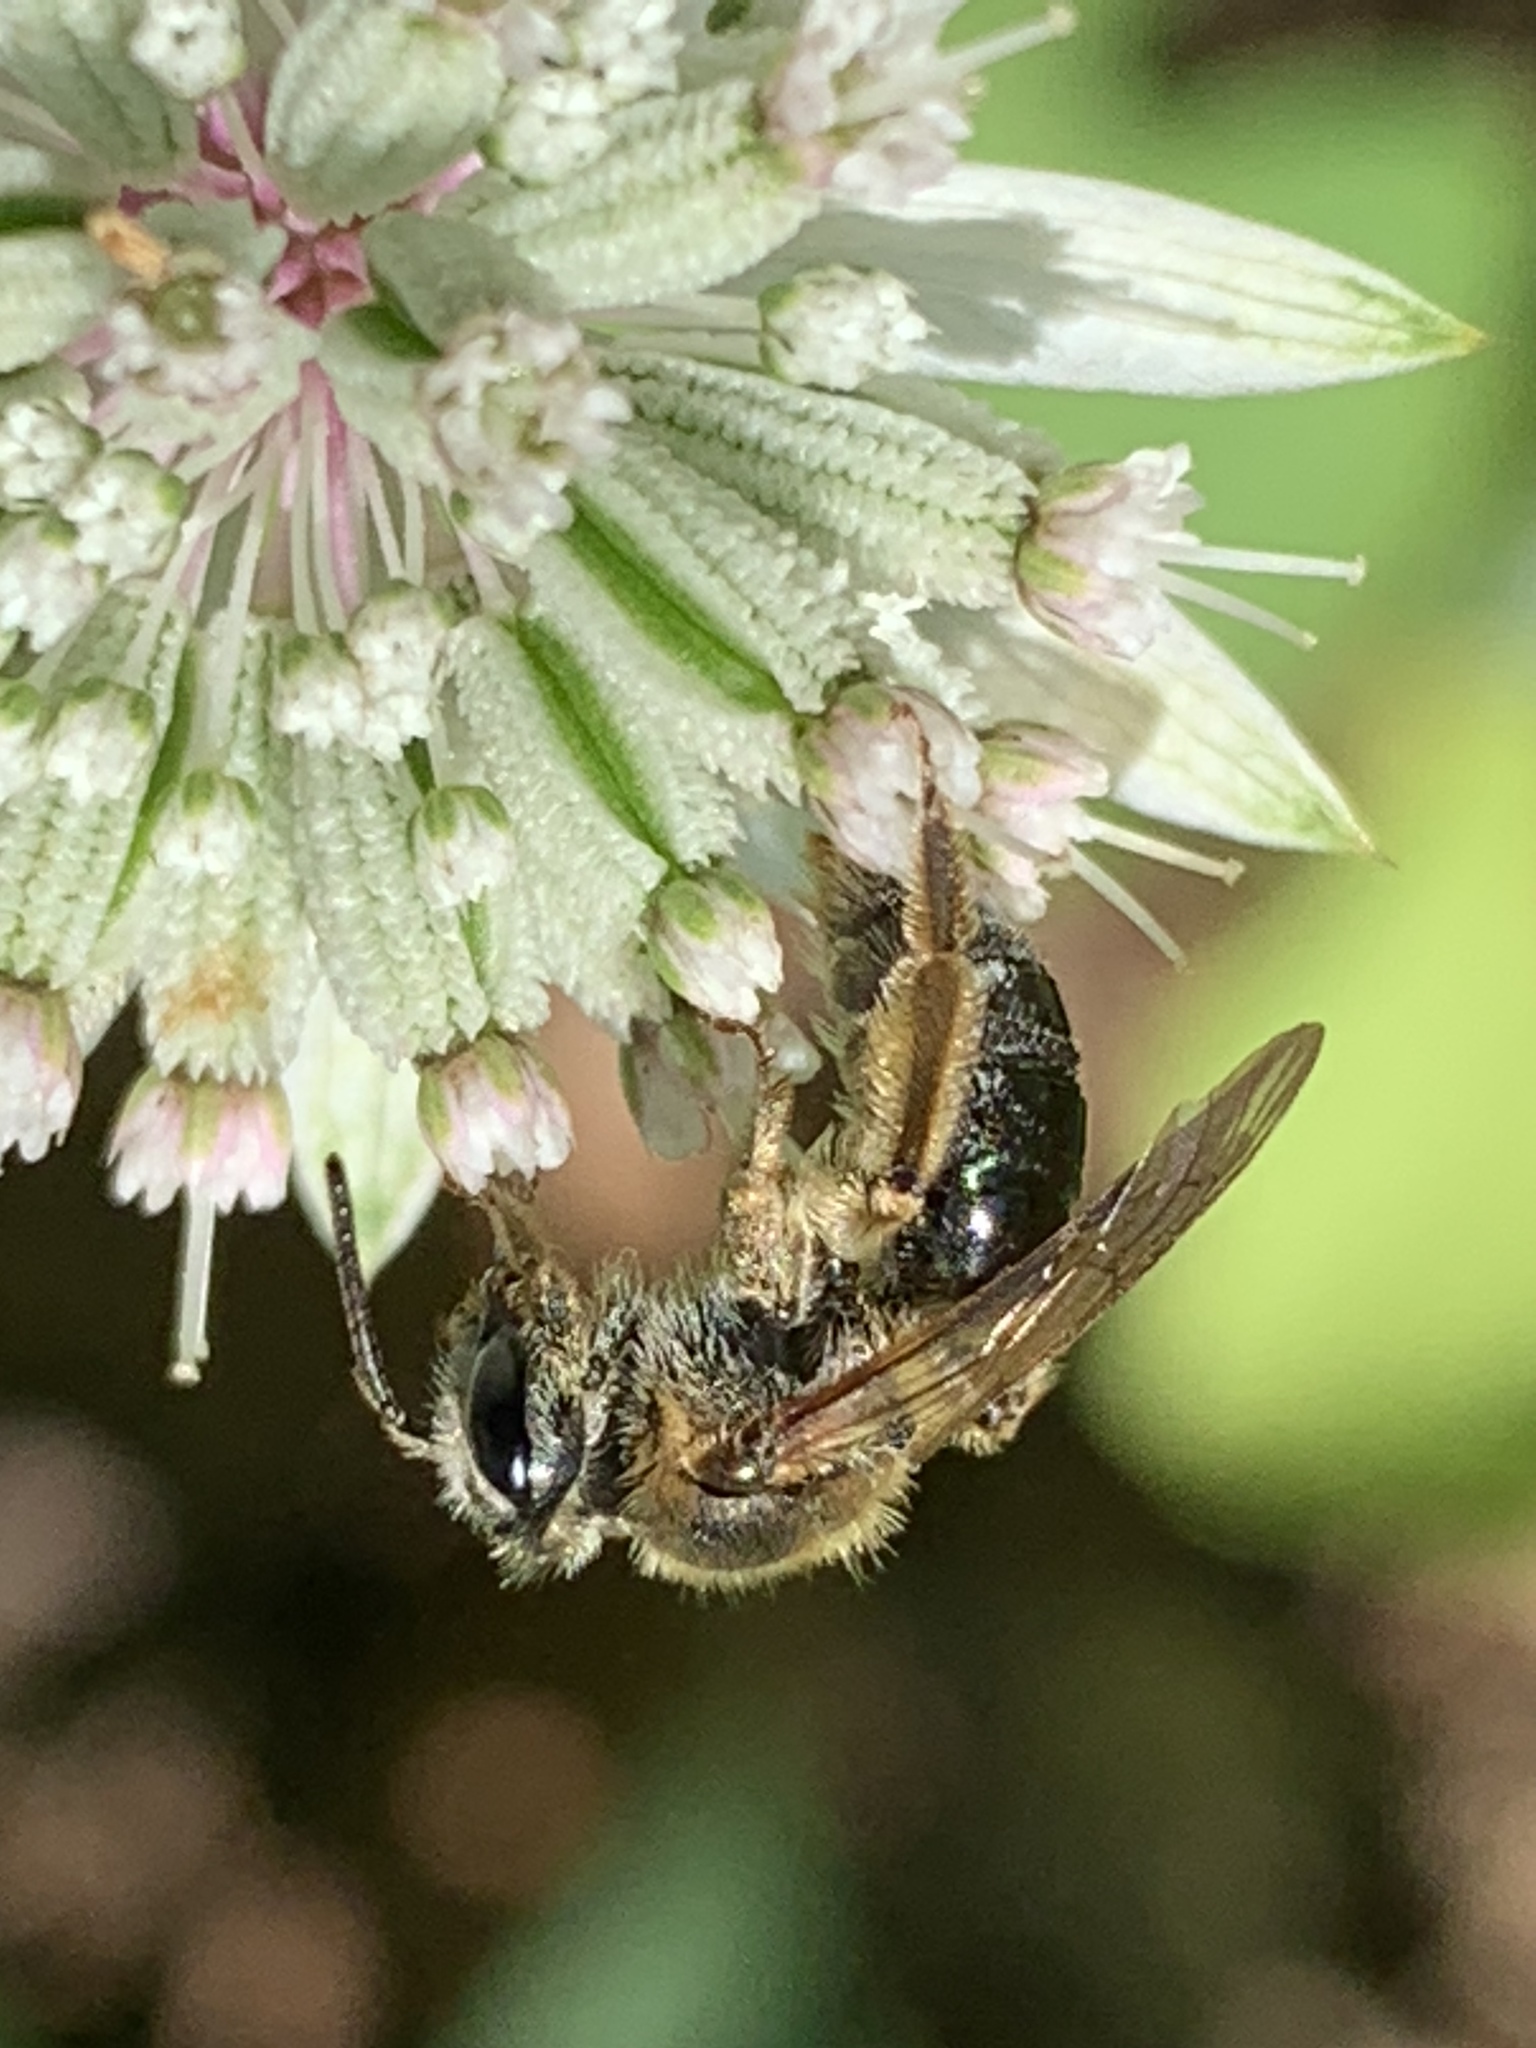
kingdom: Animalia
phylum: Arthropoda
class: Insecta
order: Hymenoptera
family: Andrenidae
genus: Andrena
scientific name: Andrena
